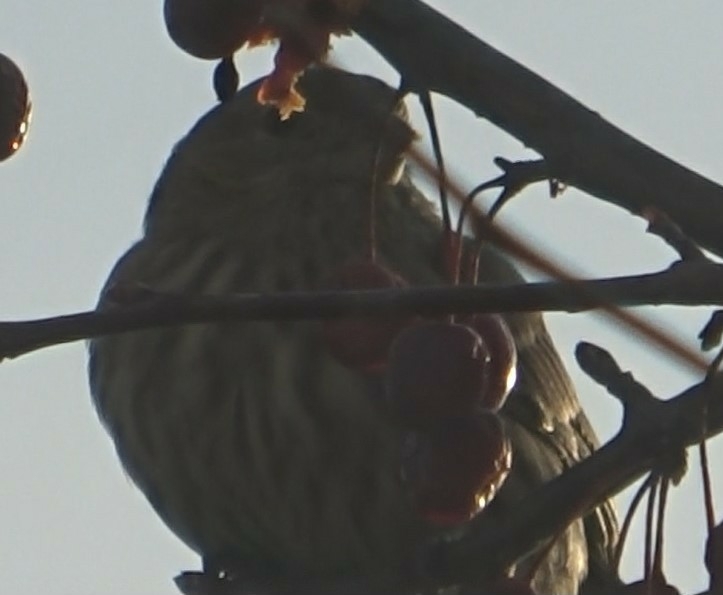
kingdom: Animalia
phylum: Chordata
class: Aves
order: Passeriformes
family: Fringillidae
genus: Haemorhous
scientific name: Haemorhous mexicanus
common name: House finch
